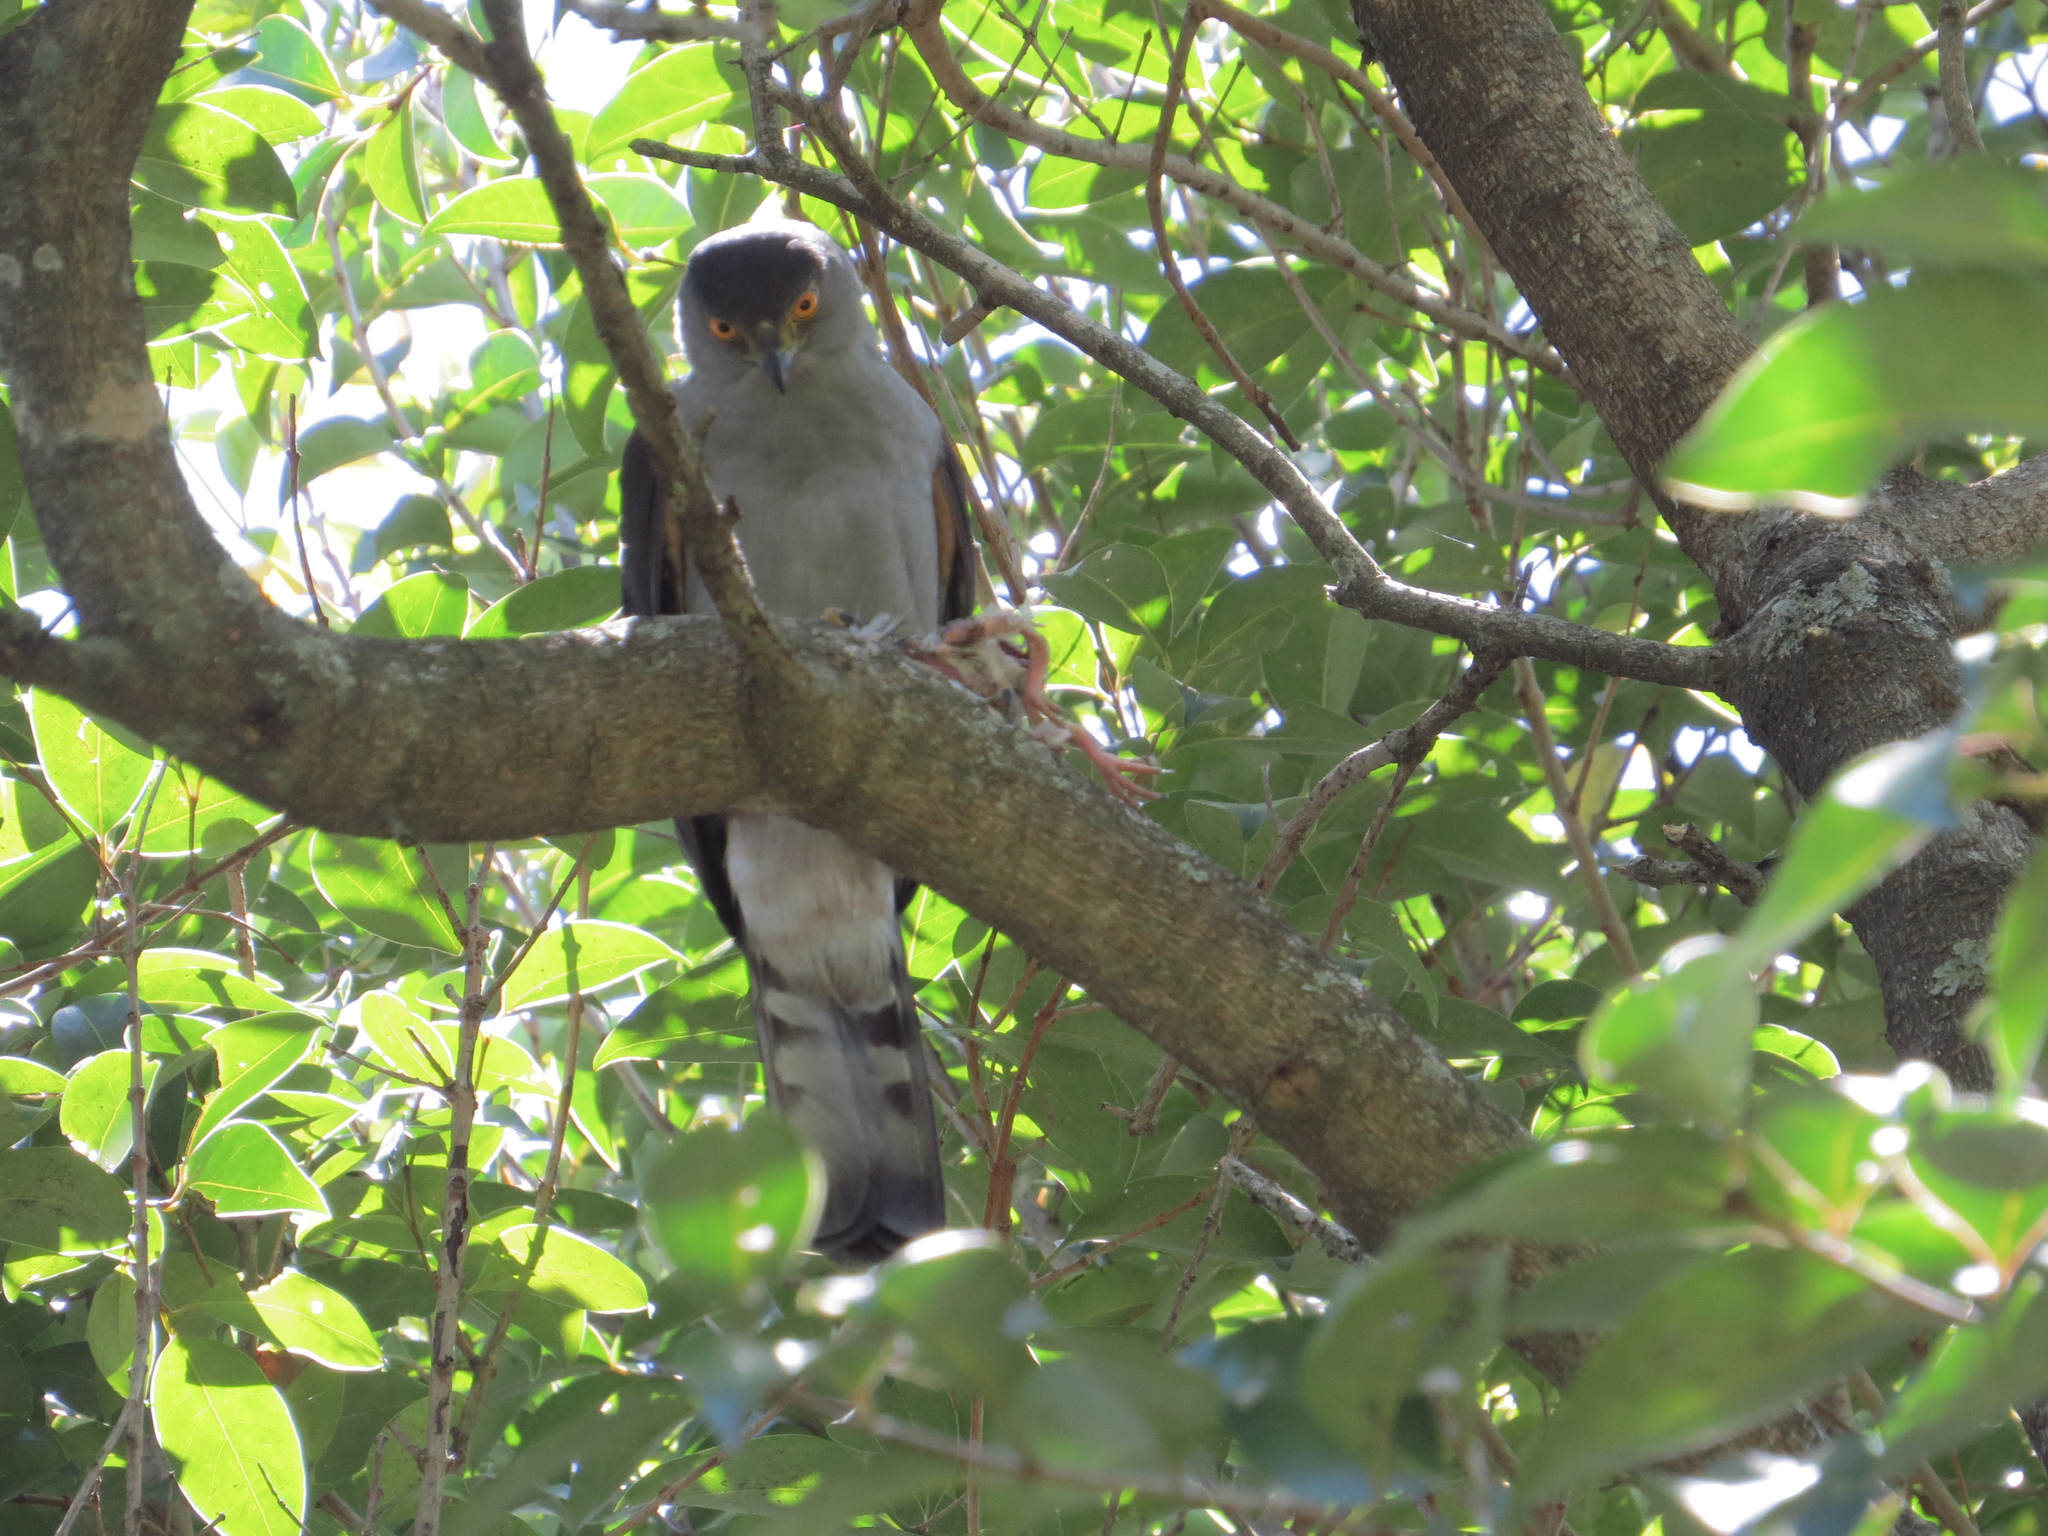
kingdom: Animalia
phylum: Chordata
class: Aves
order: Accipitriformes
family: Accipitridae
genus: Accipiter
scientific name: Accipiter bicolor
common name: Bicolored hawk
